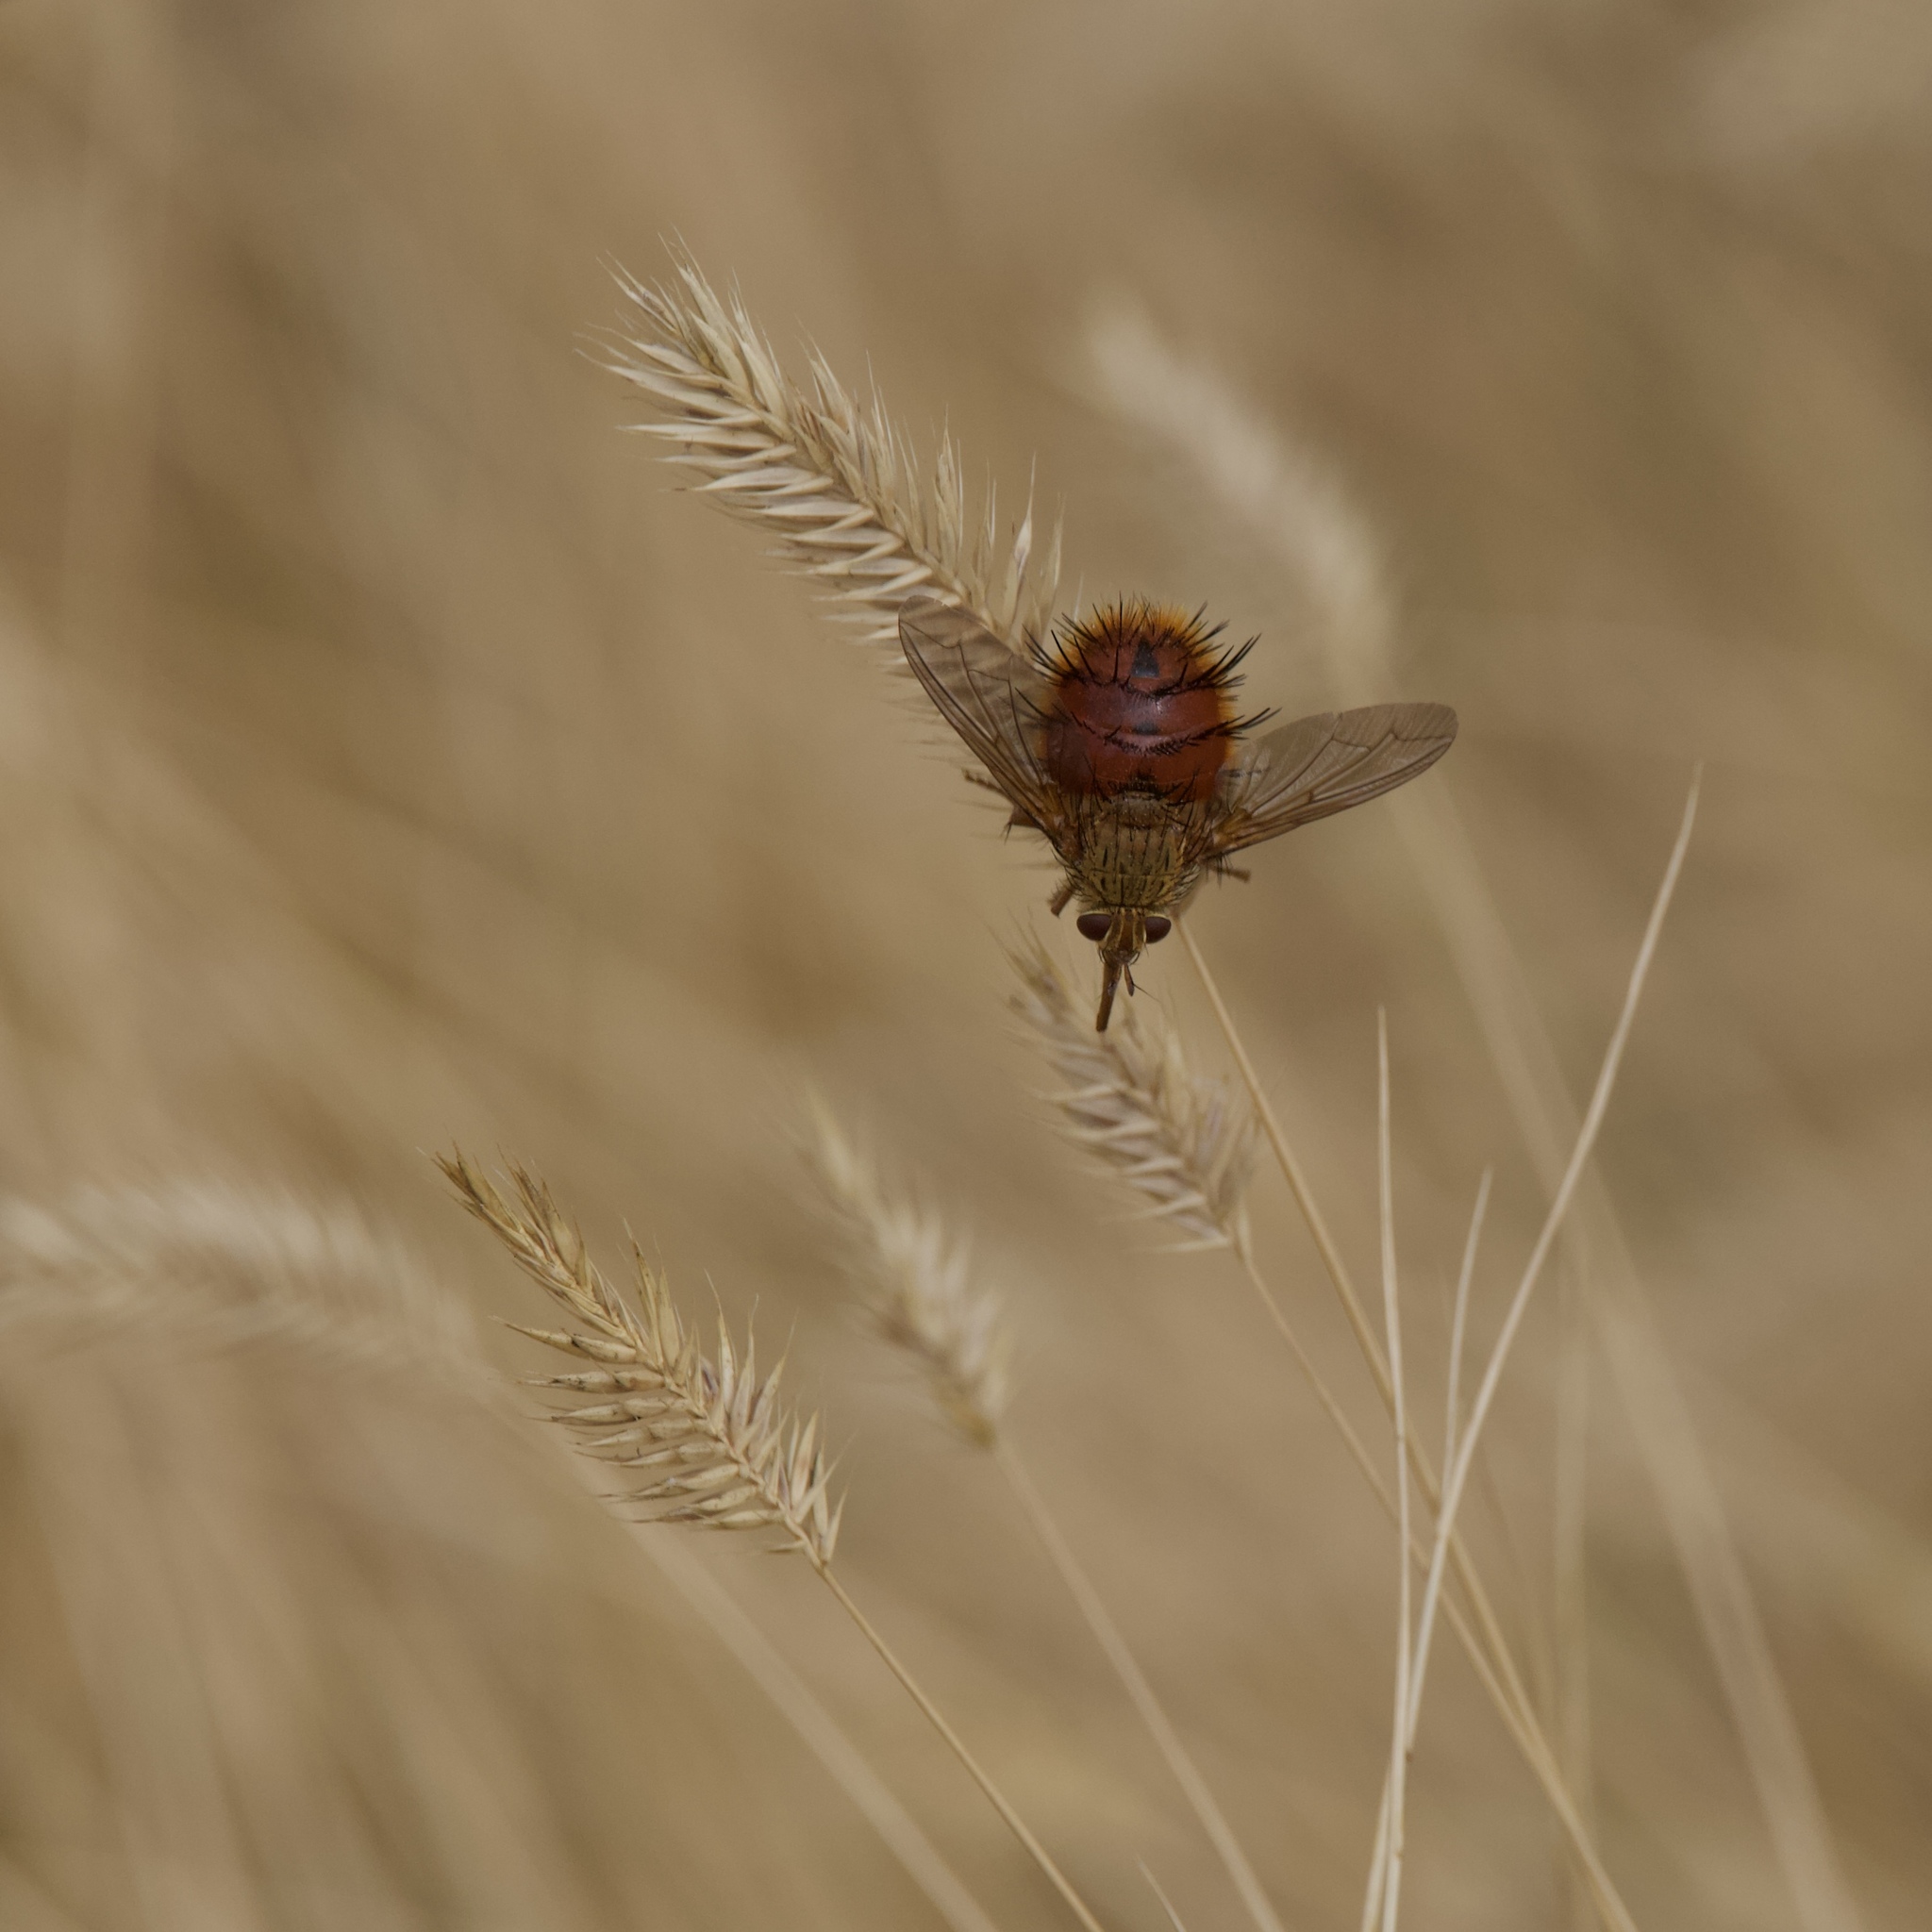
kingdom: Animalia
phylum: Arthropoda
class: Insecta
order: Diptera
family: Tachinidae
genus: Adejeania
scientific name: Adejeania vexatrix
